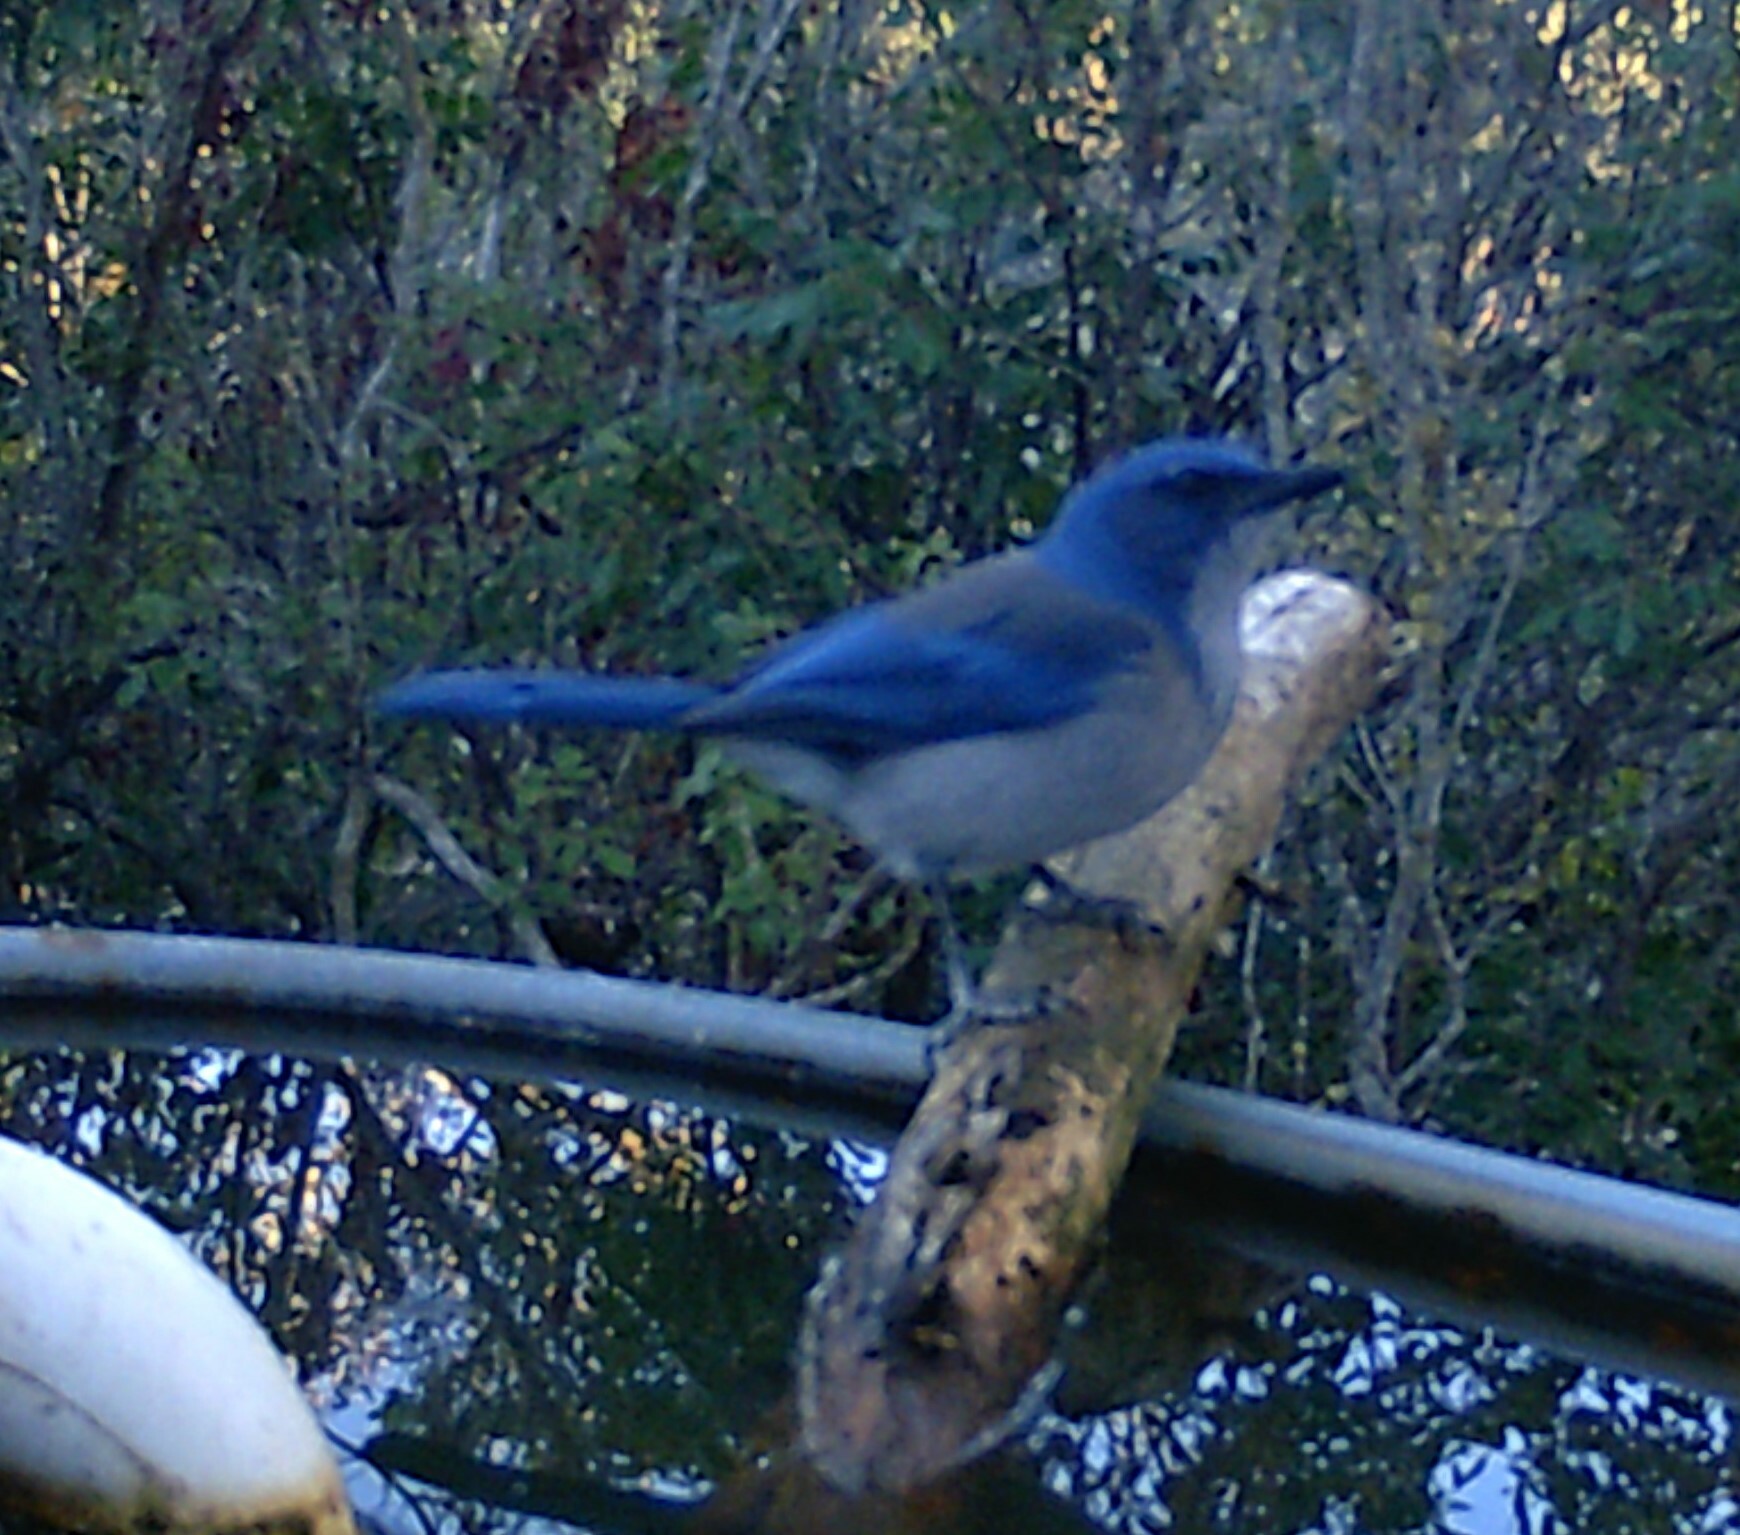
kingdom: Animalia
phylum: Chordata
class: Aves
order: Passeriformes
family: Corvidae
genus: Aphelocoma
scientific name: Aphelocoma woodhouseii
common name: Woodhouse's scrub-jay
